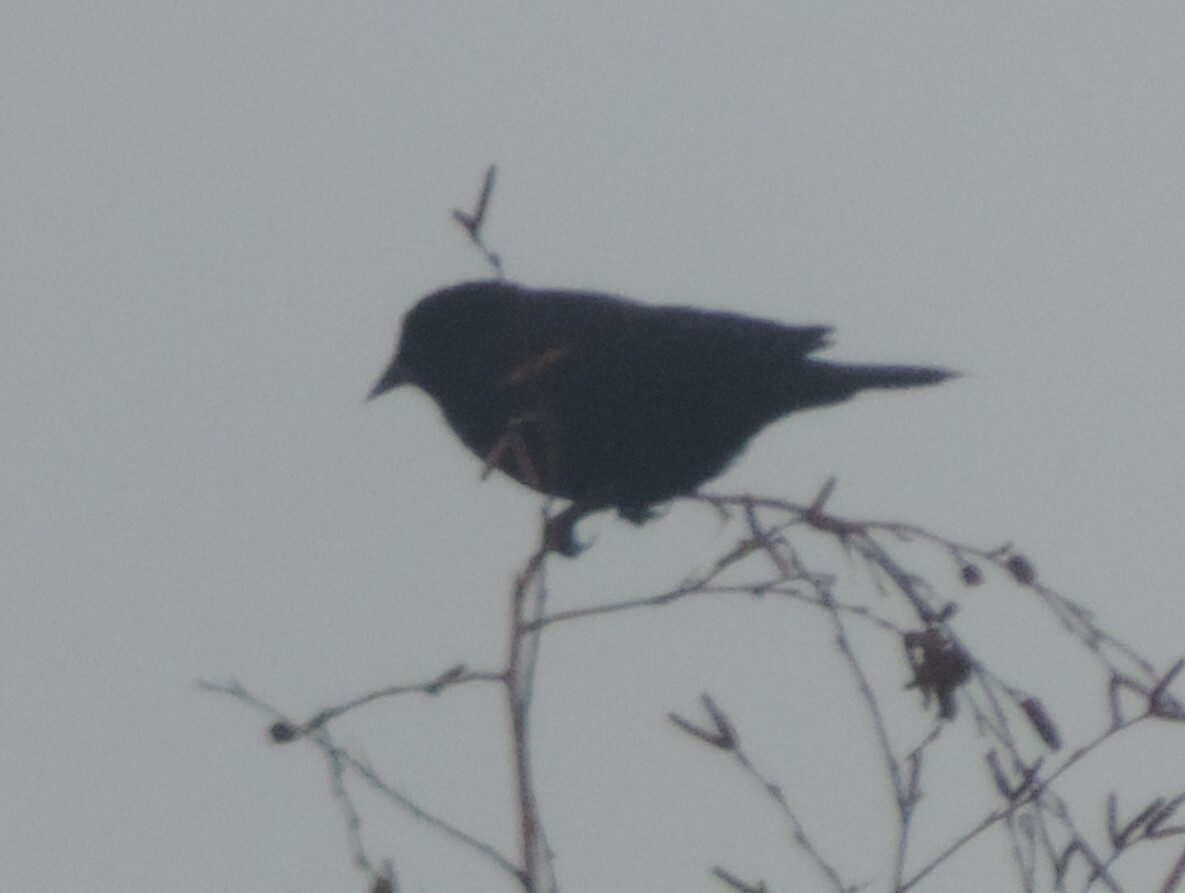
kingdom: Animalia
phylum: Chordata
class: Aves
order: Passeriformes
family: Icteridae
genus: Agelaius
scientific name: Agelaius phoeniceus
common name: Red-winged blackbird
